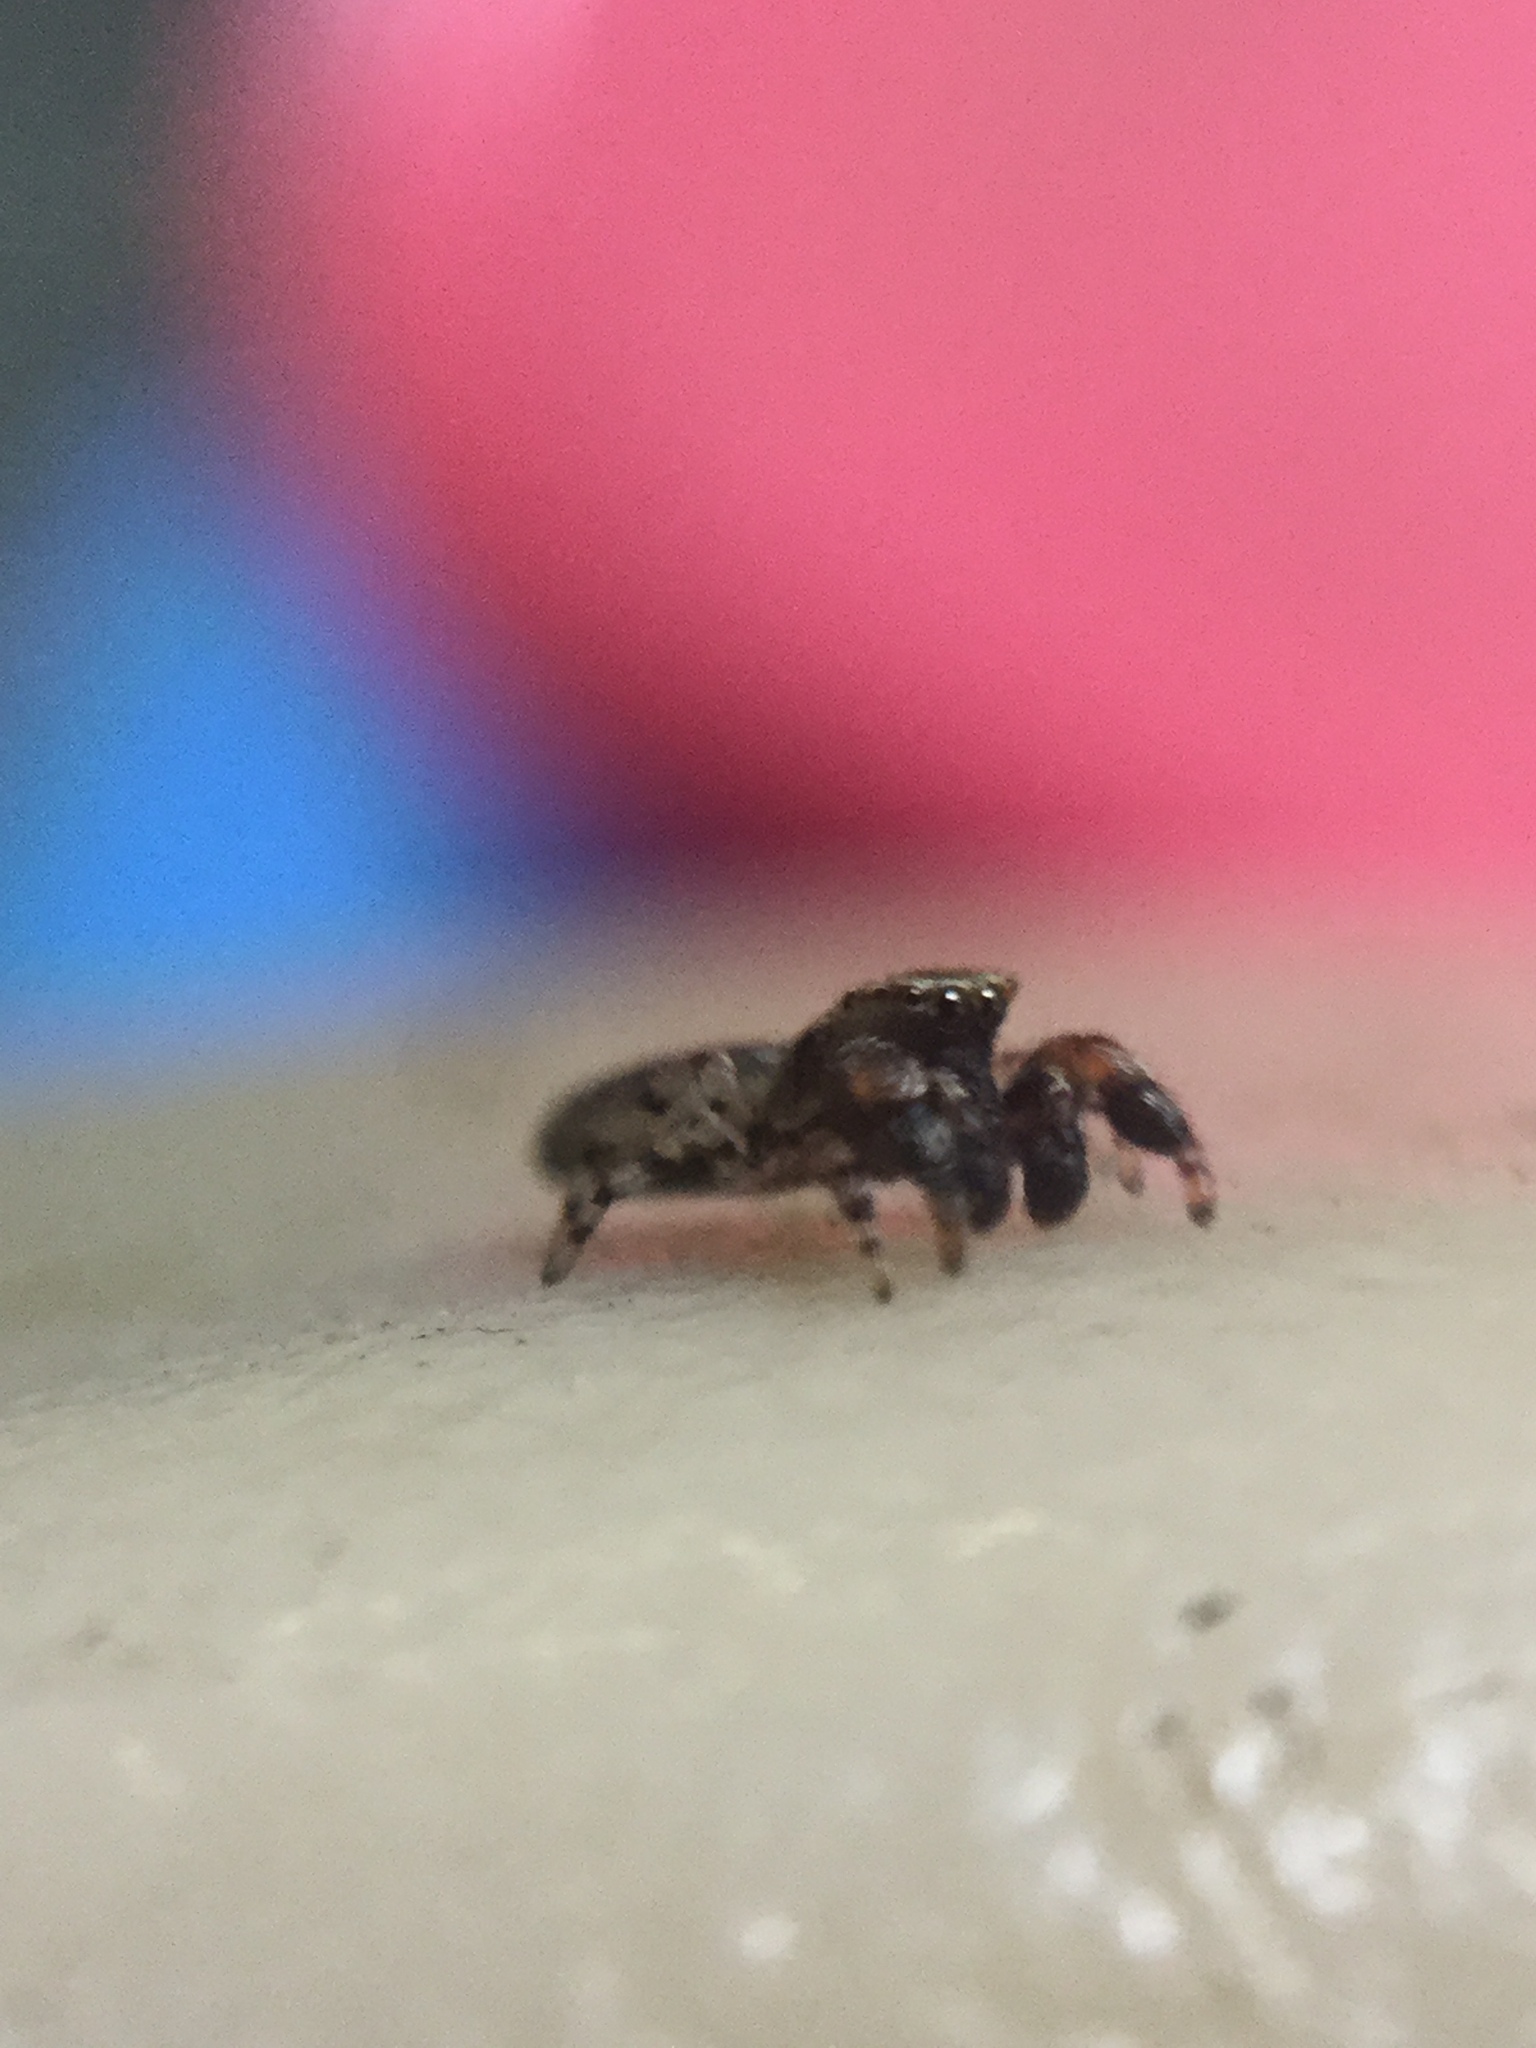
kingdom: Animalia
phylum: Arthropoda
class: Arachnida
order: Araneae
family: Salticidae
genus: Admestina
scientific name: Admestina
